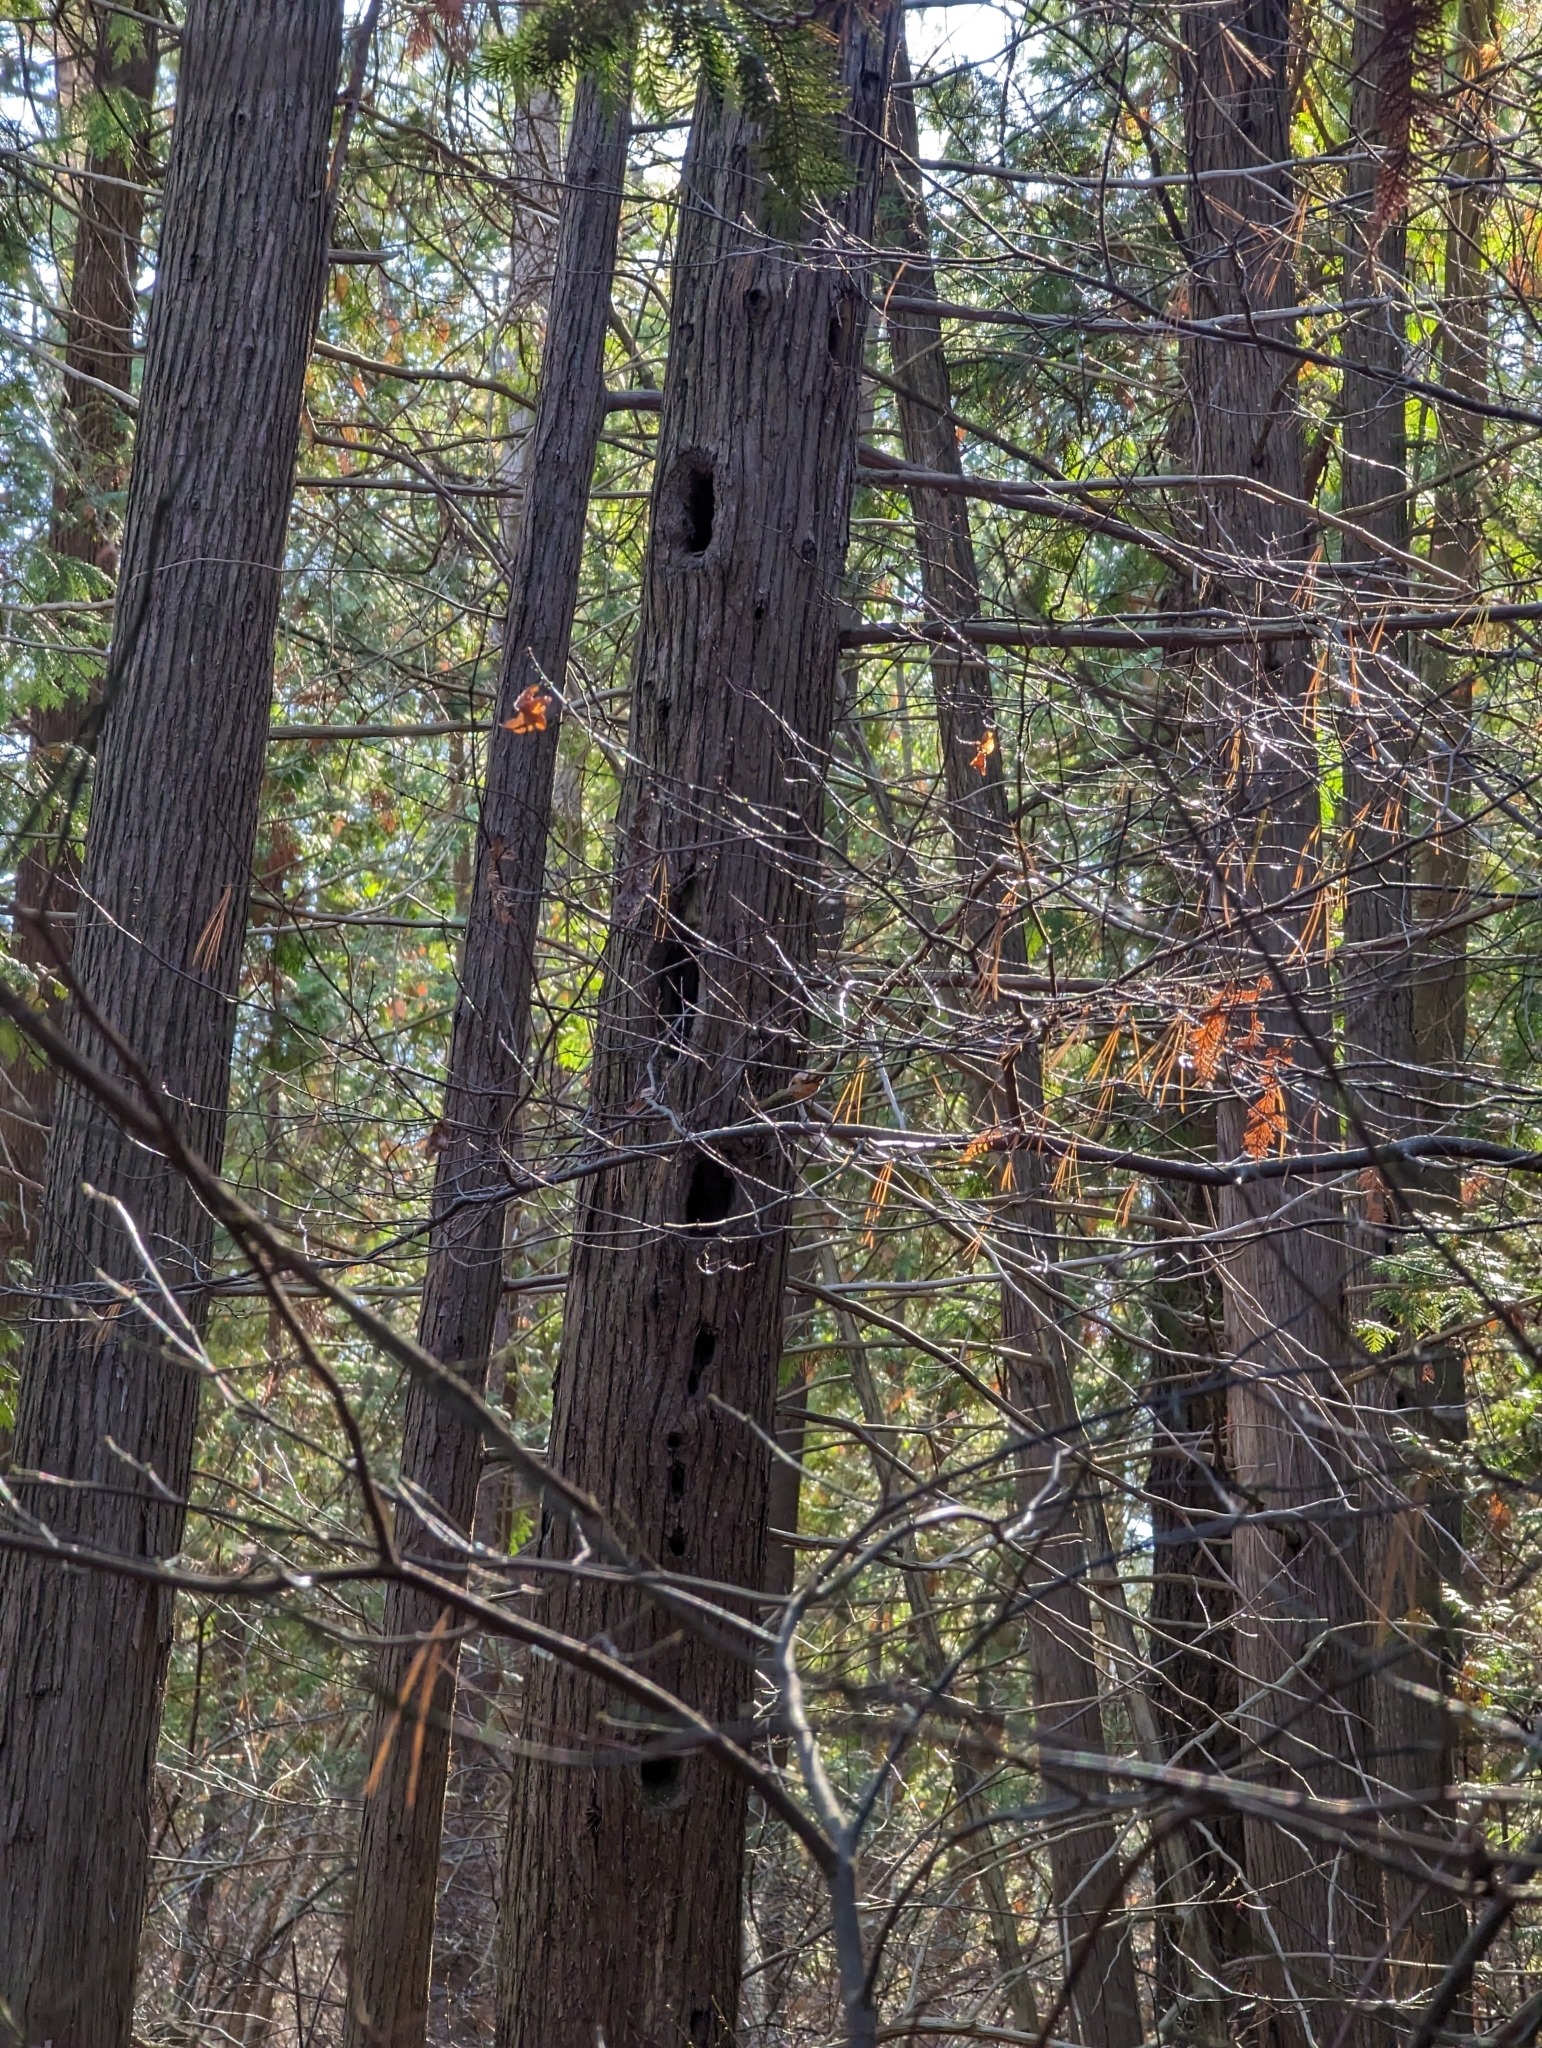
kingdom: Animalia
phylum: Chordata
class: Aves
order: Piciformes
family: Picidae
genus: Dryocopus
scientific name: Dryocopus pileatus
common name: Pileated woodpecker
